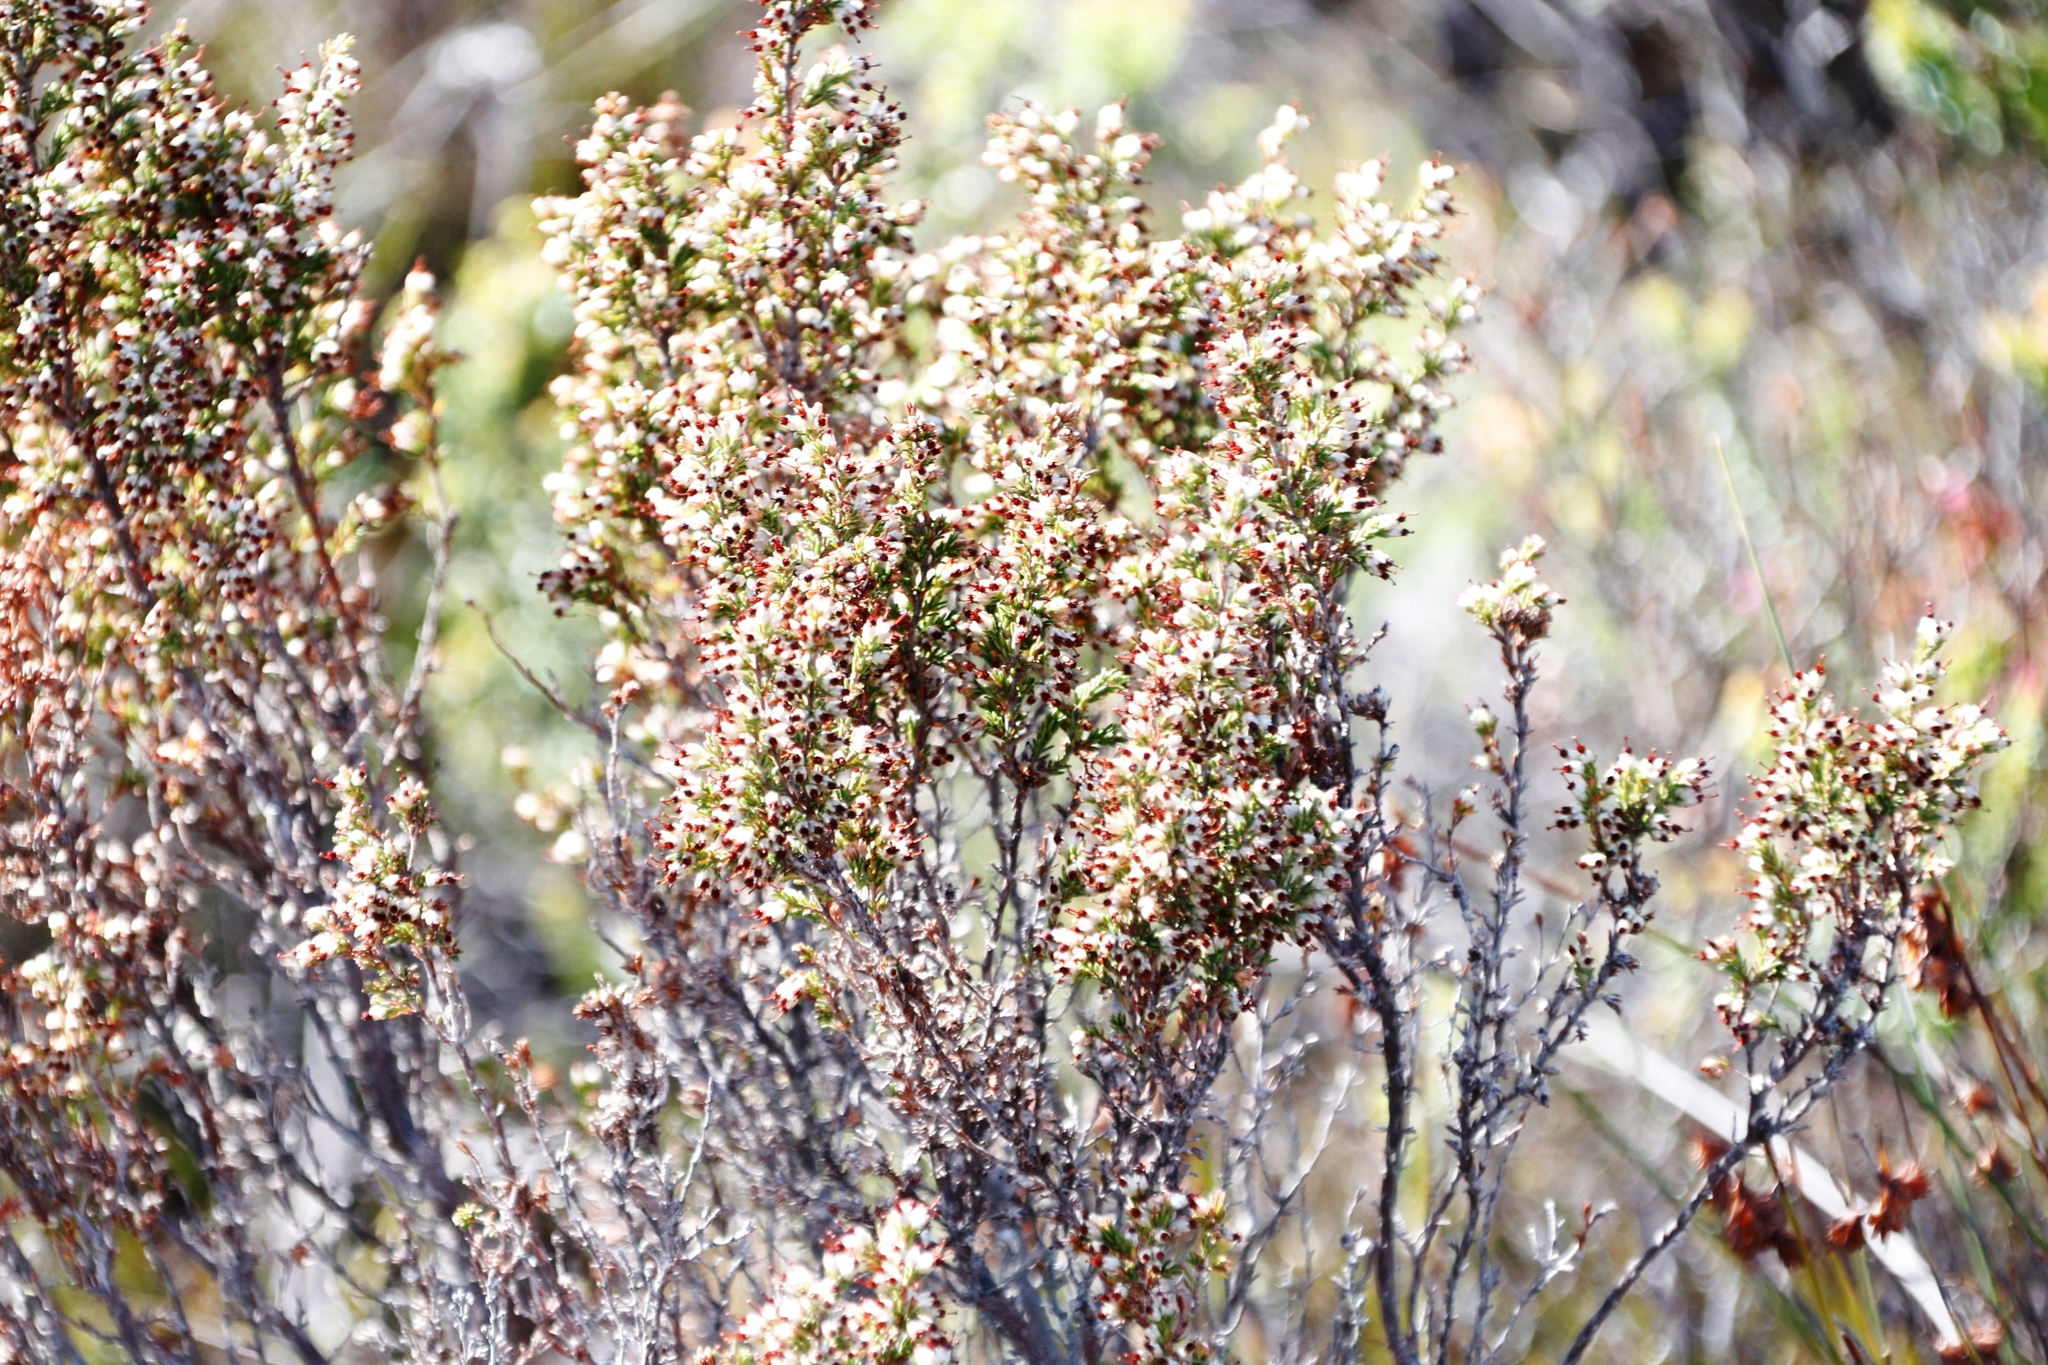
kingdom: Plantae
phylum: Tracheophyta
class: Magnoliopsida
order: Ericales
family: Ericaceae
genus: Erica
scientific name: Erica imbricata
